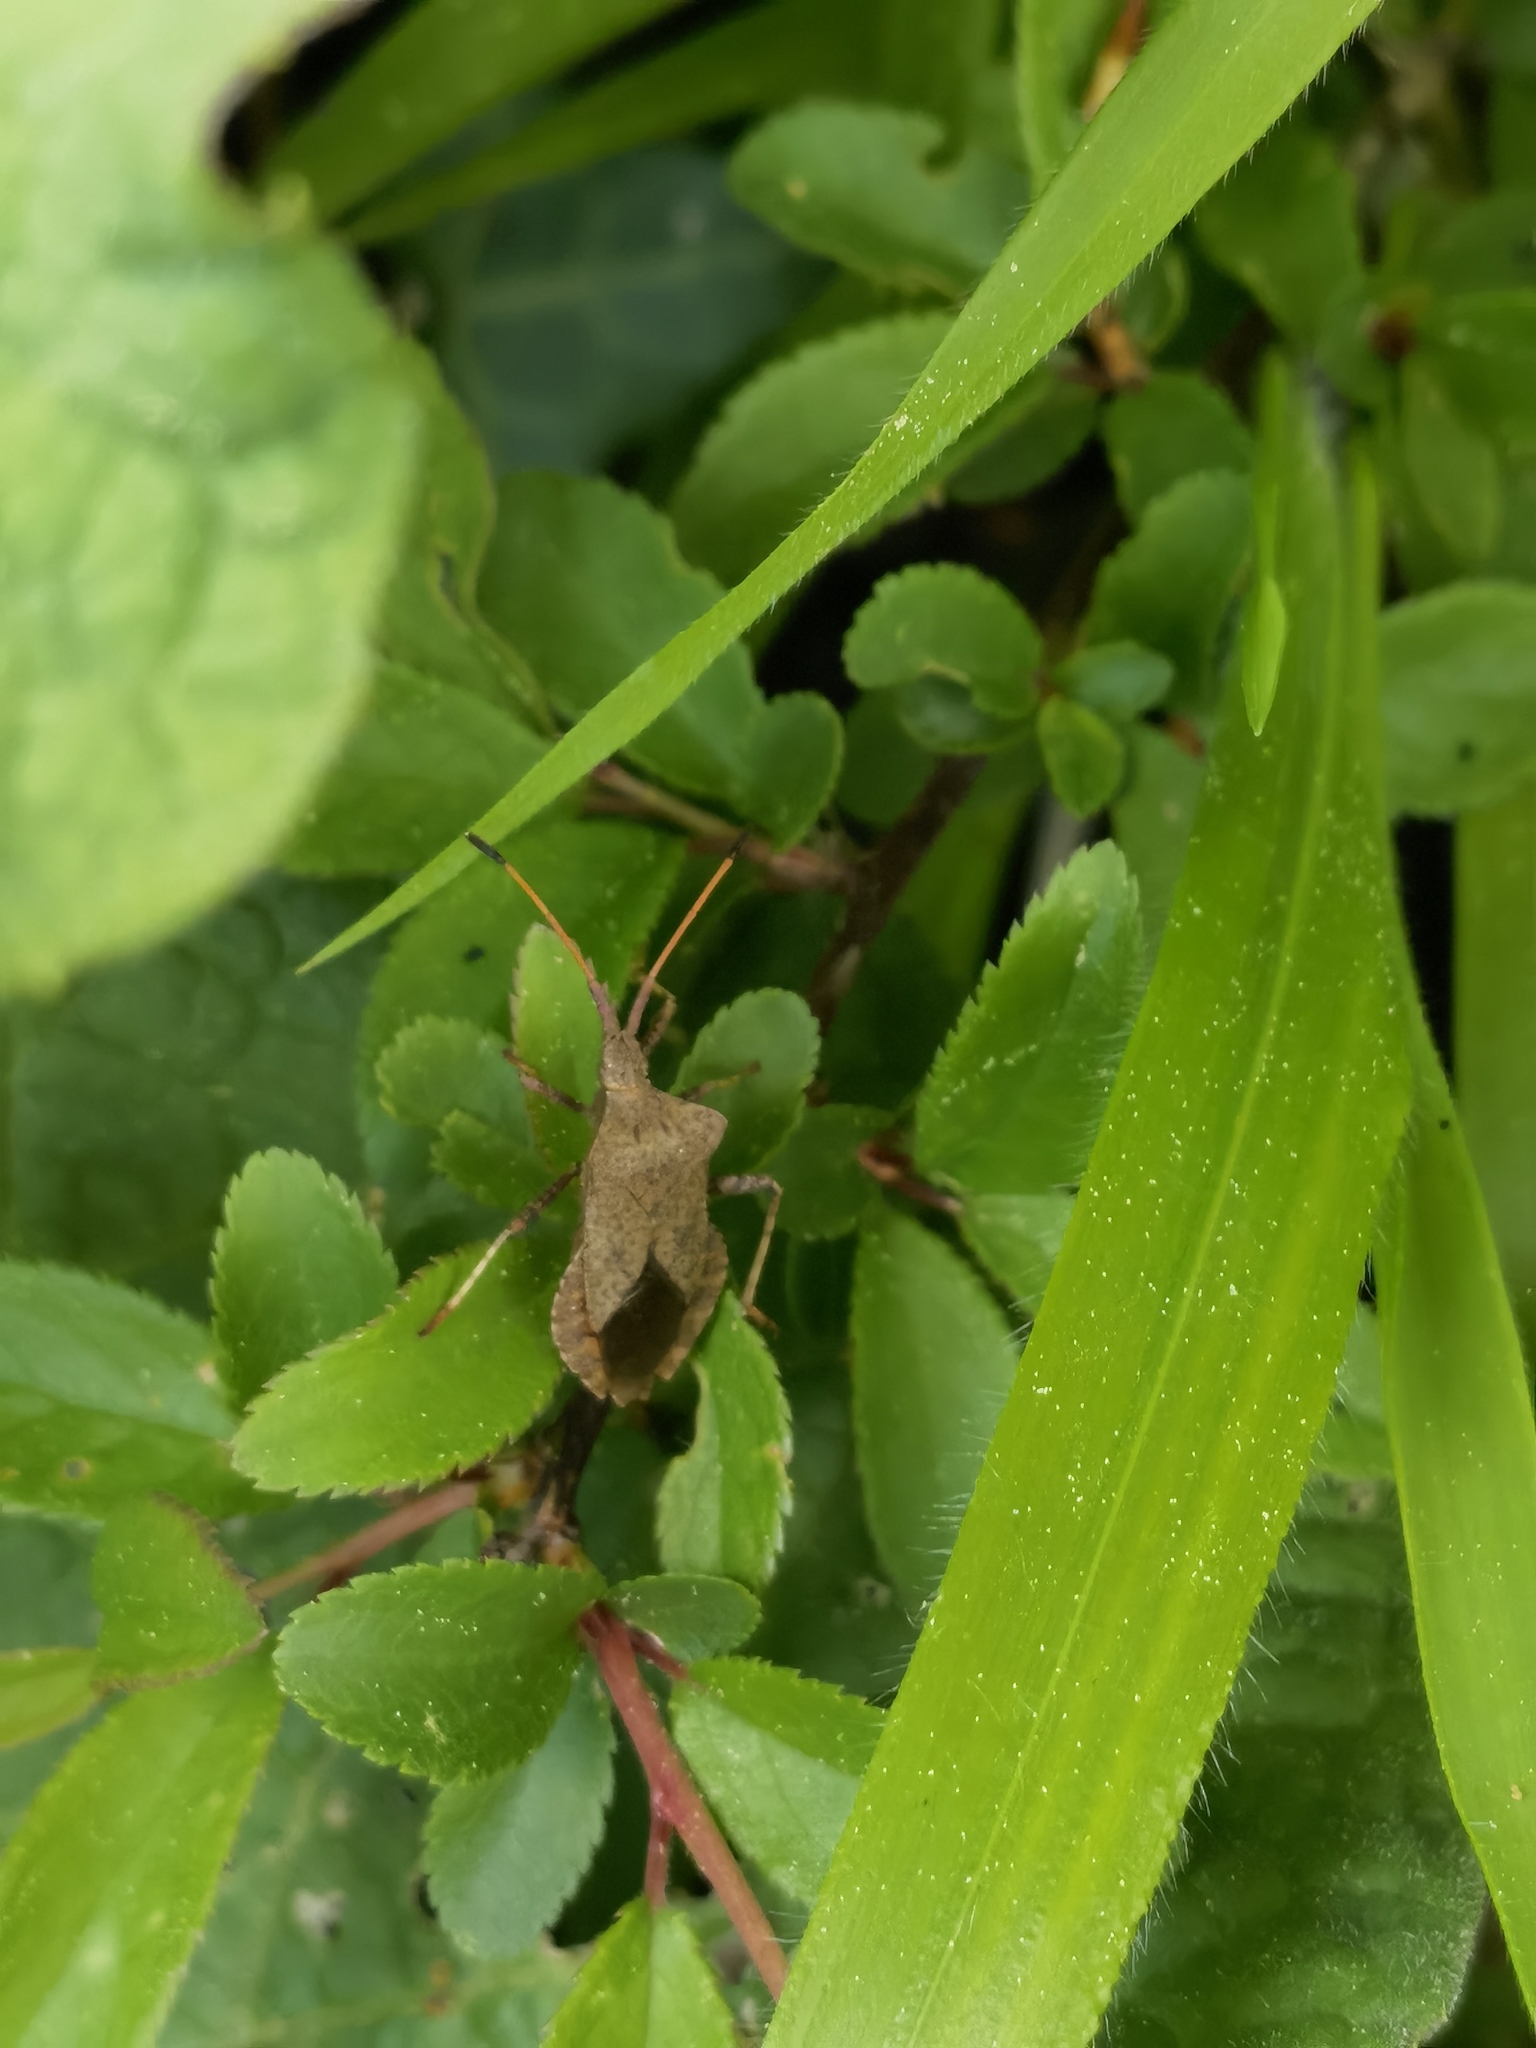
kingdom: Animalia
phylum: Arthropoda
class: Insecta
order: Hemiptera
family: Coreidae
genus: Coreus
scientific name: Coreus marginatus
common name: Dock bug
